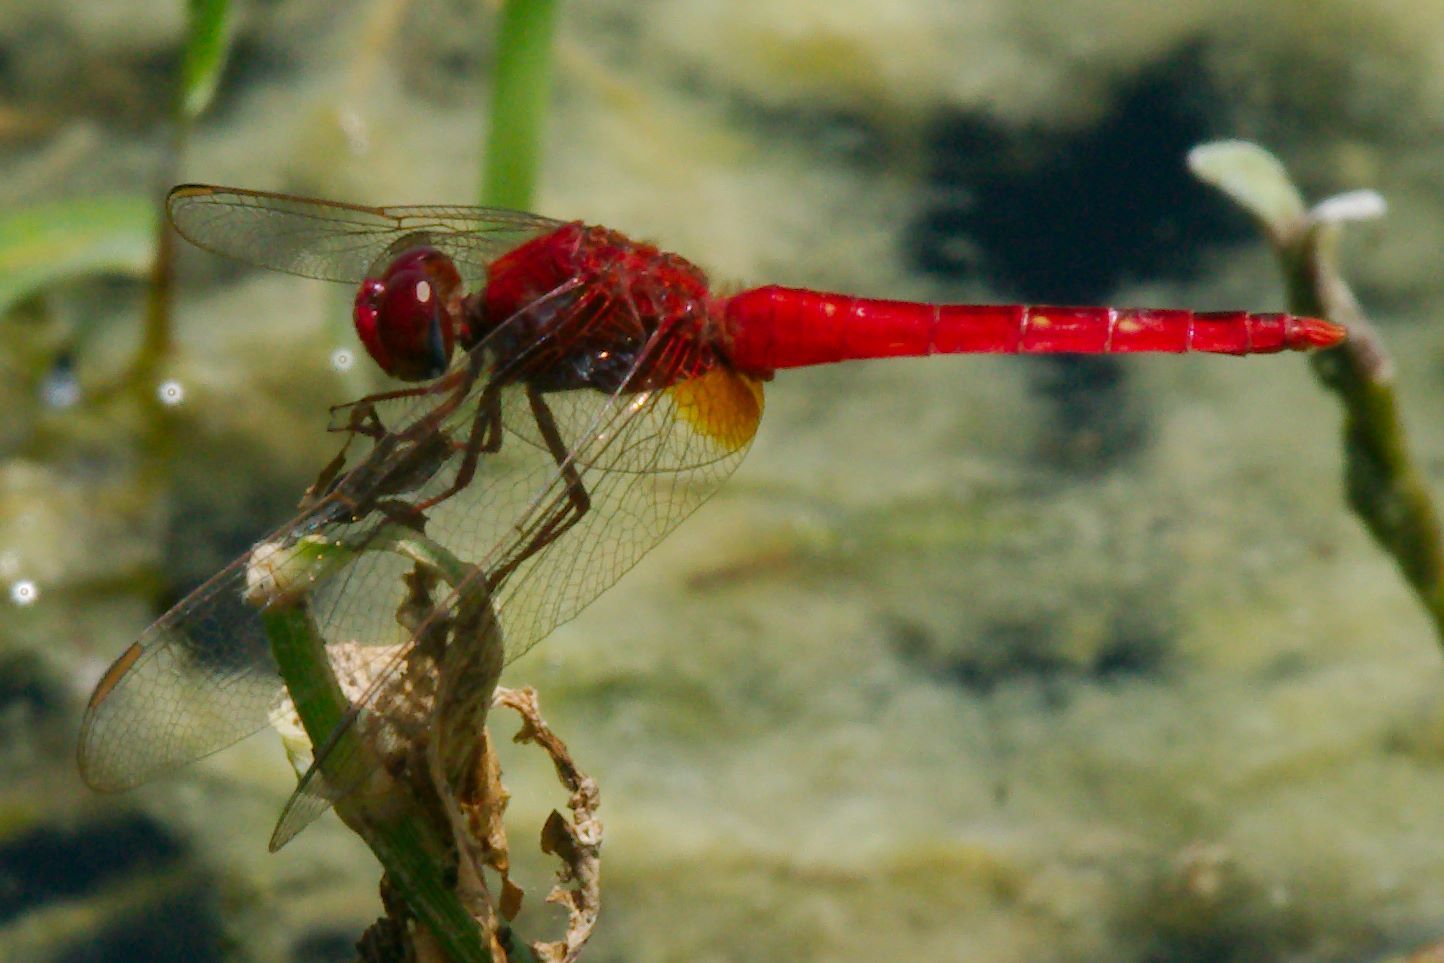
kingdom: Animalia
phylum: Arthropoda
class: Insecta
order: Odonata
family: Libellulidae
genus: Crocothemis
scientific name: Crocothemis servilia
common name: Scarlet skimmer
